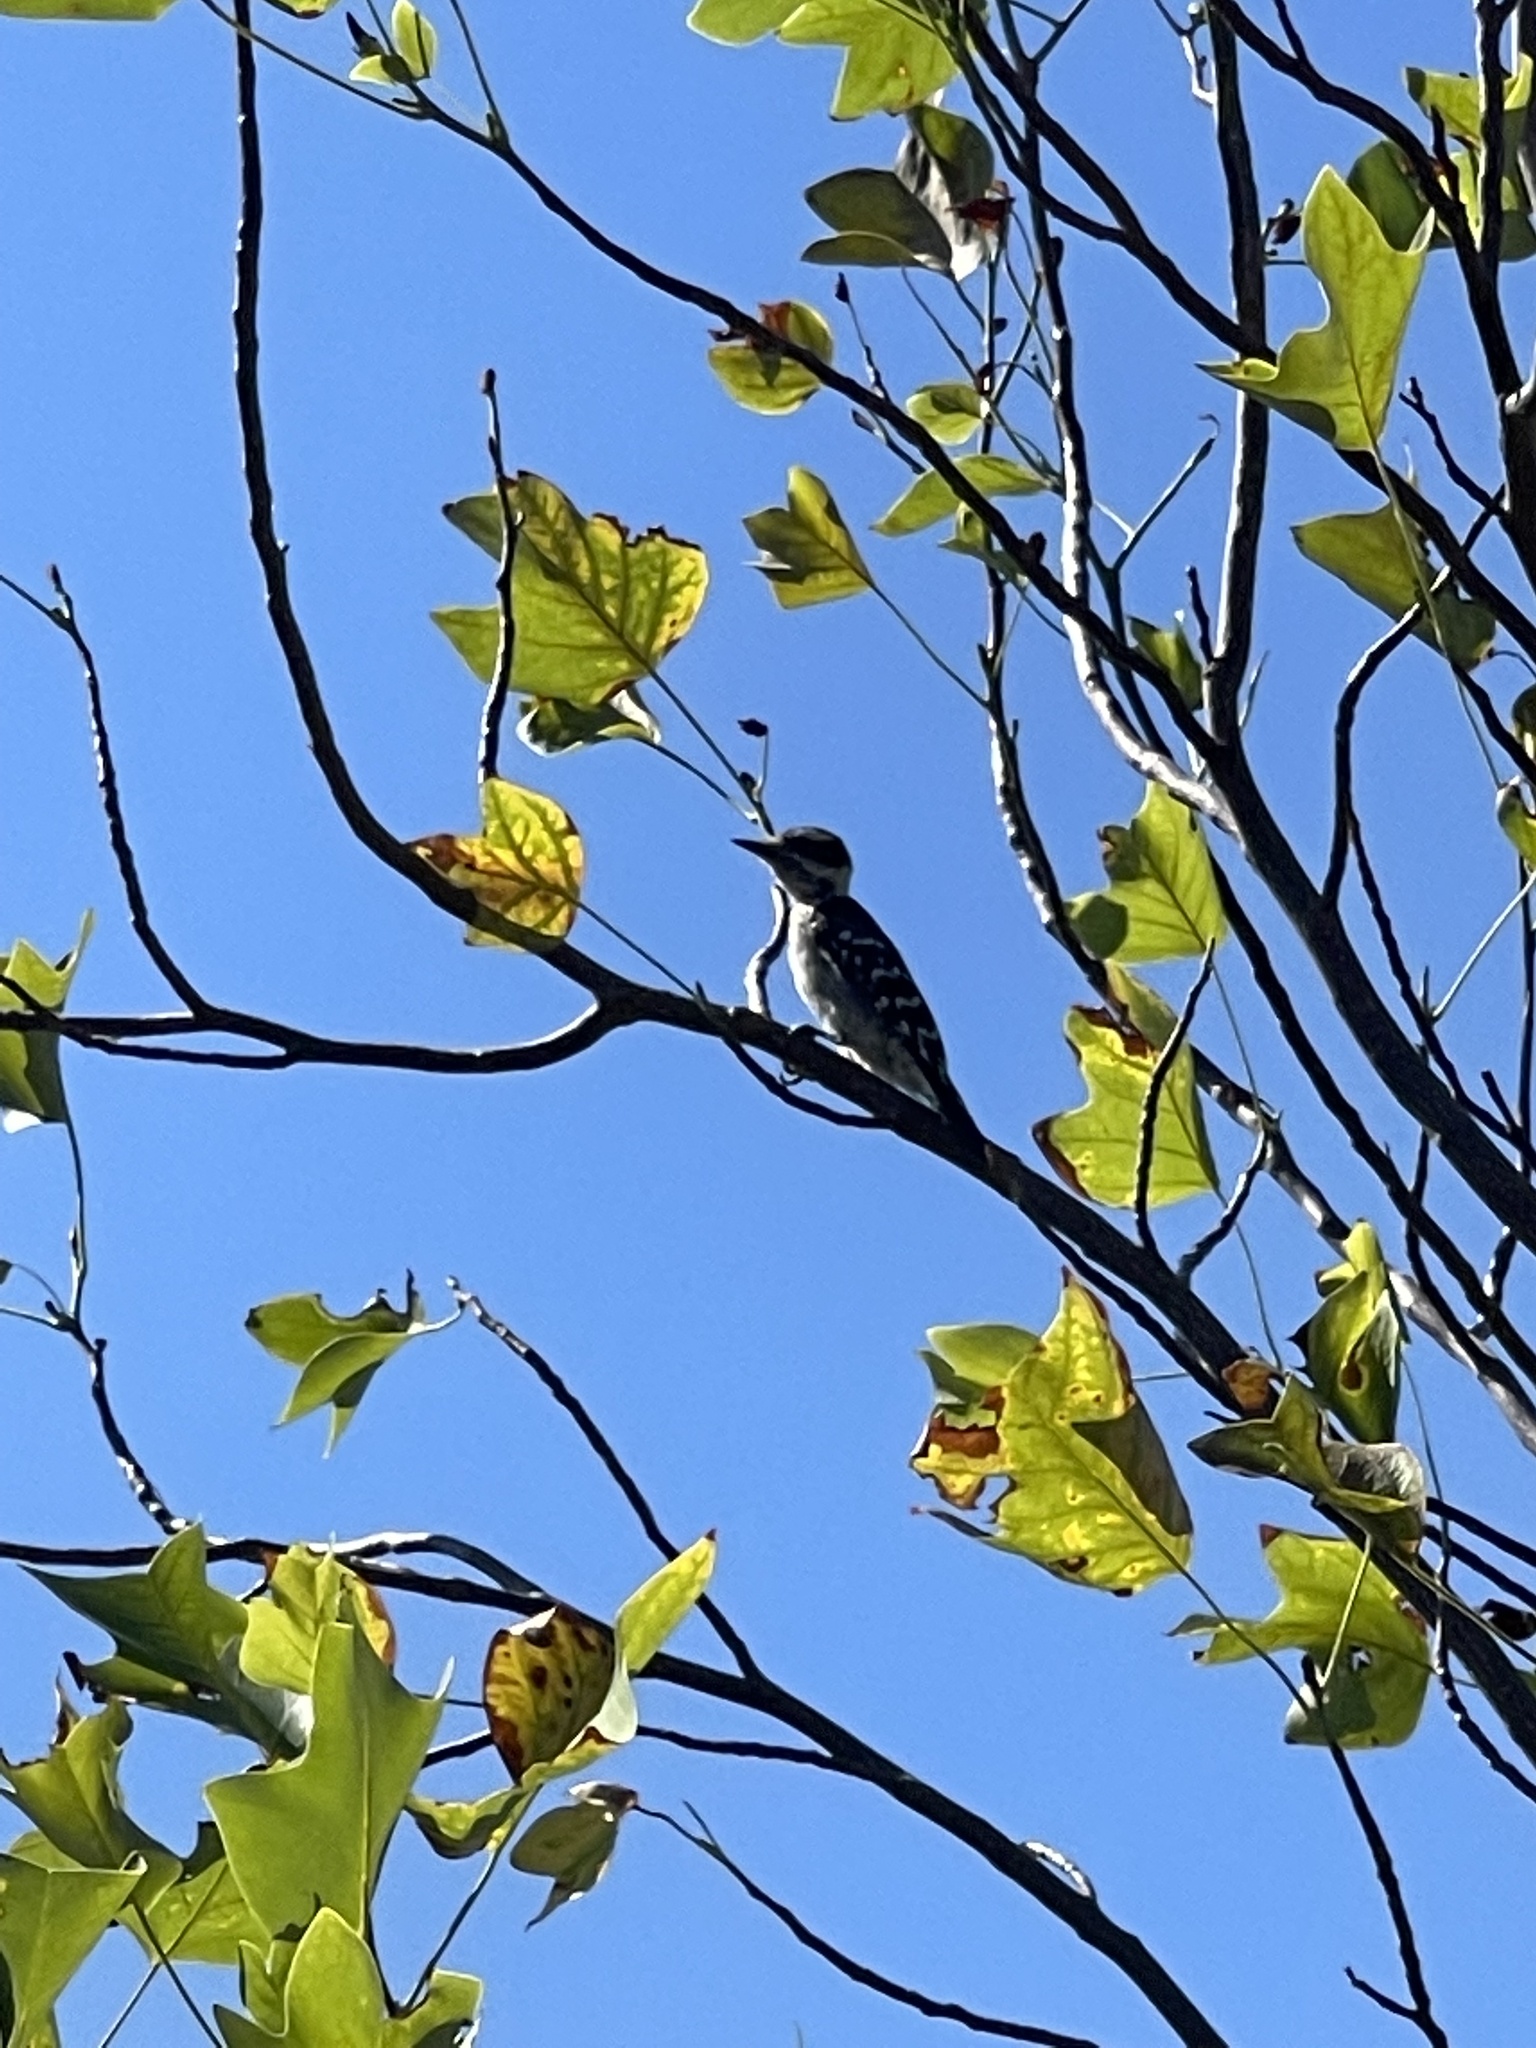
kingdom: Animalia
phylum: Chordata
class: Aves
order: Piciformes
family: Picidae
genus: Dryobates
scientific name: Dryobates pubescens
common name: Downy woodpecker
